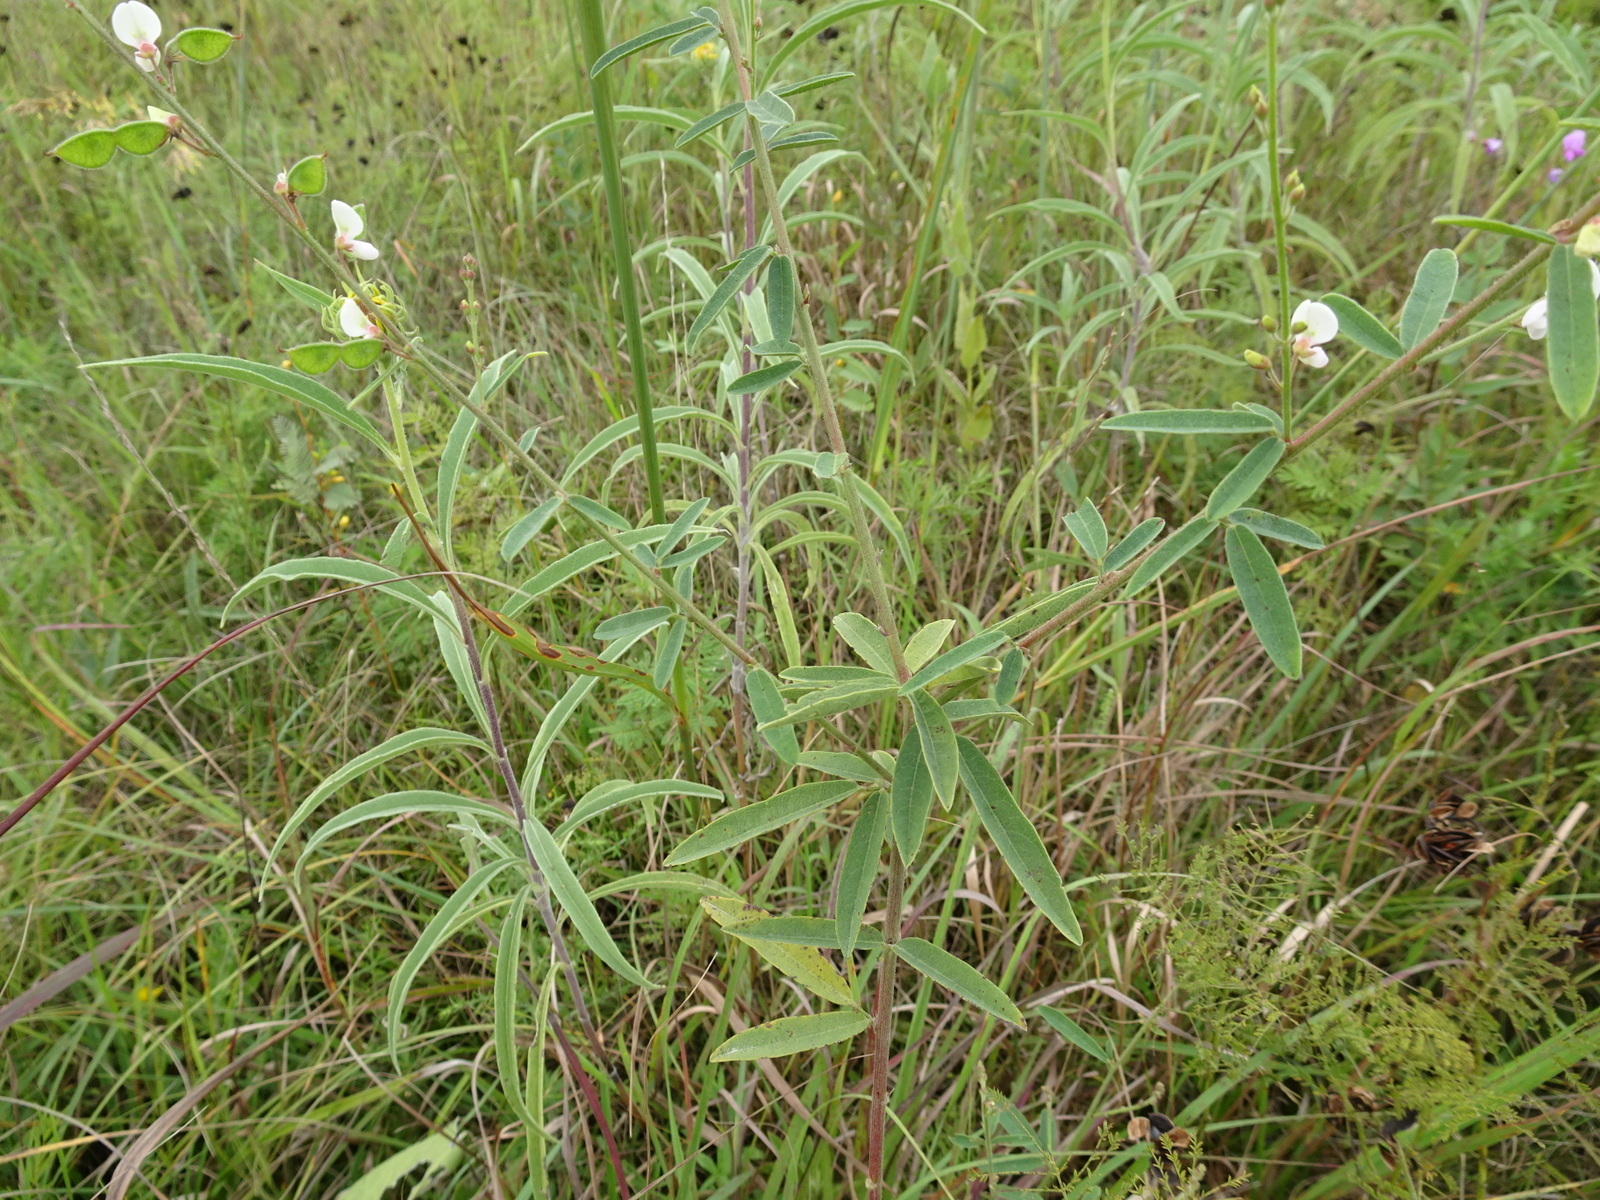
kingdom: Plantae
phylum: Tracheophyta
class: Magnoliopsida
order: Fabales
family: Fabaceae
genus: Desmodium
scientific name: Desmodium sessilifolium
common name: Sessile tick-clover
